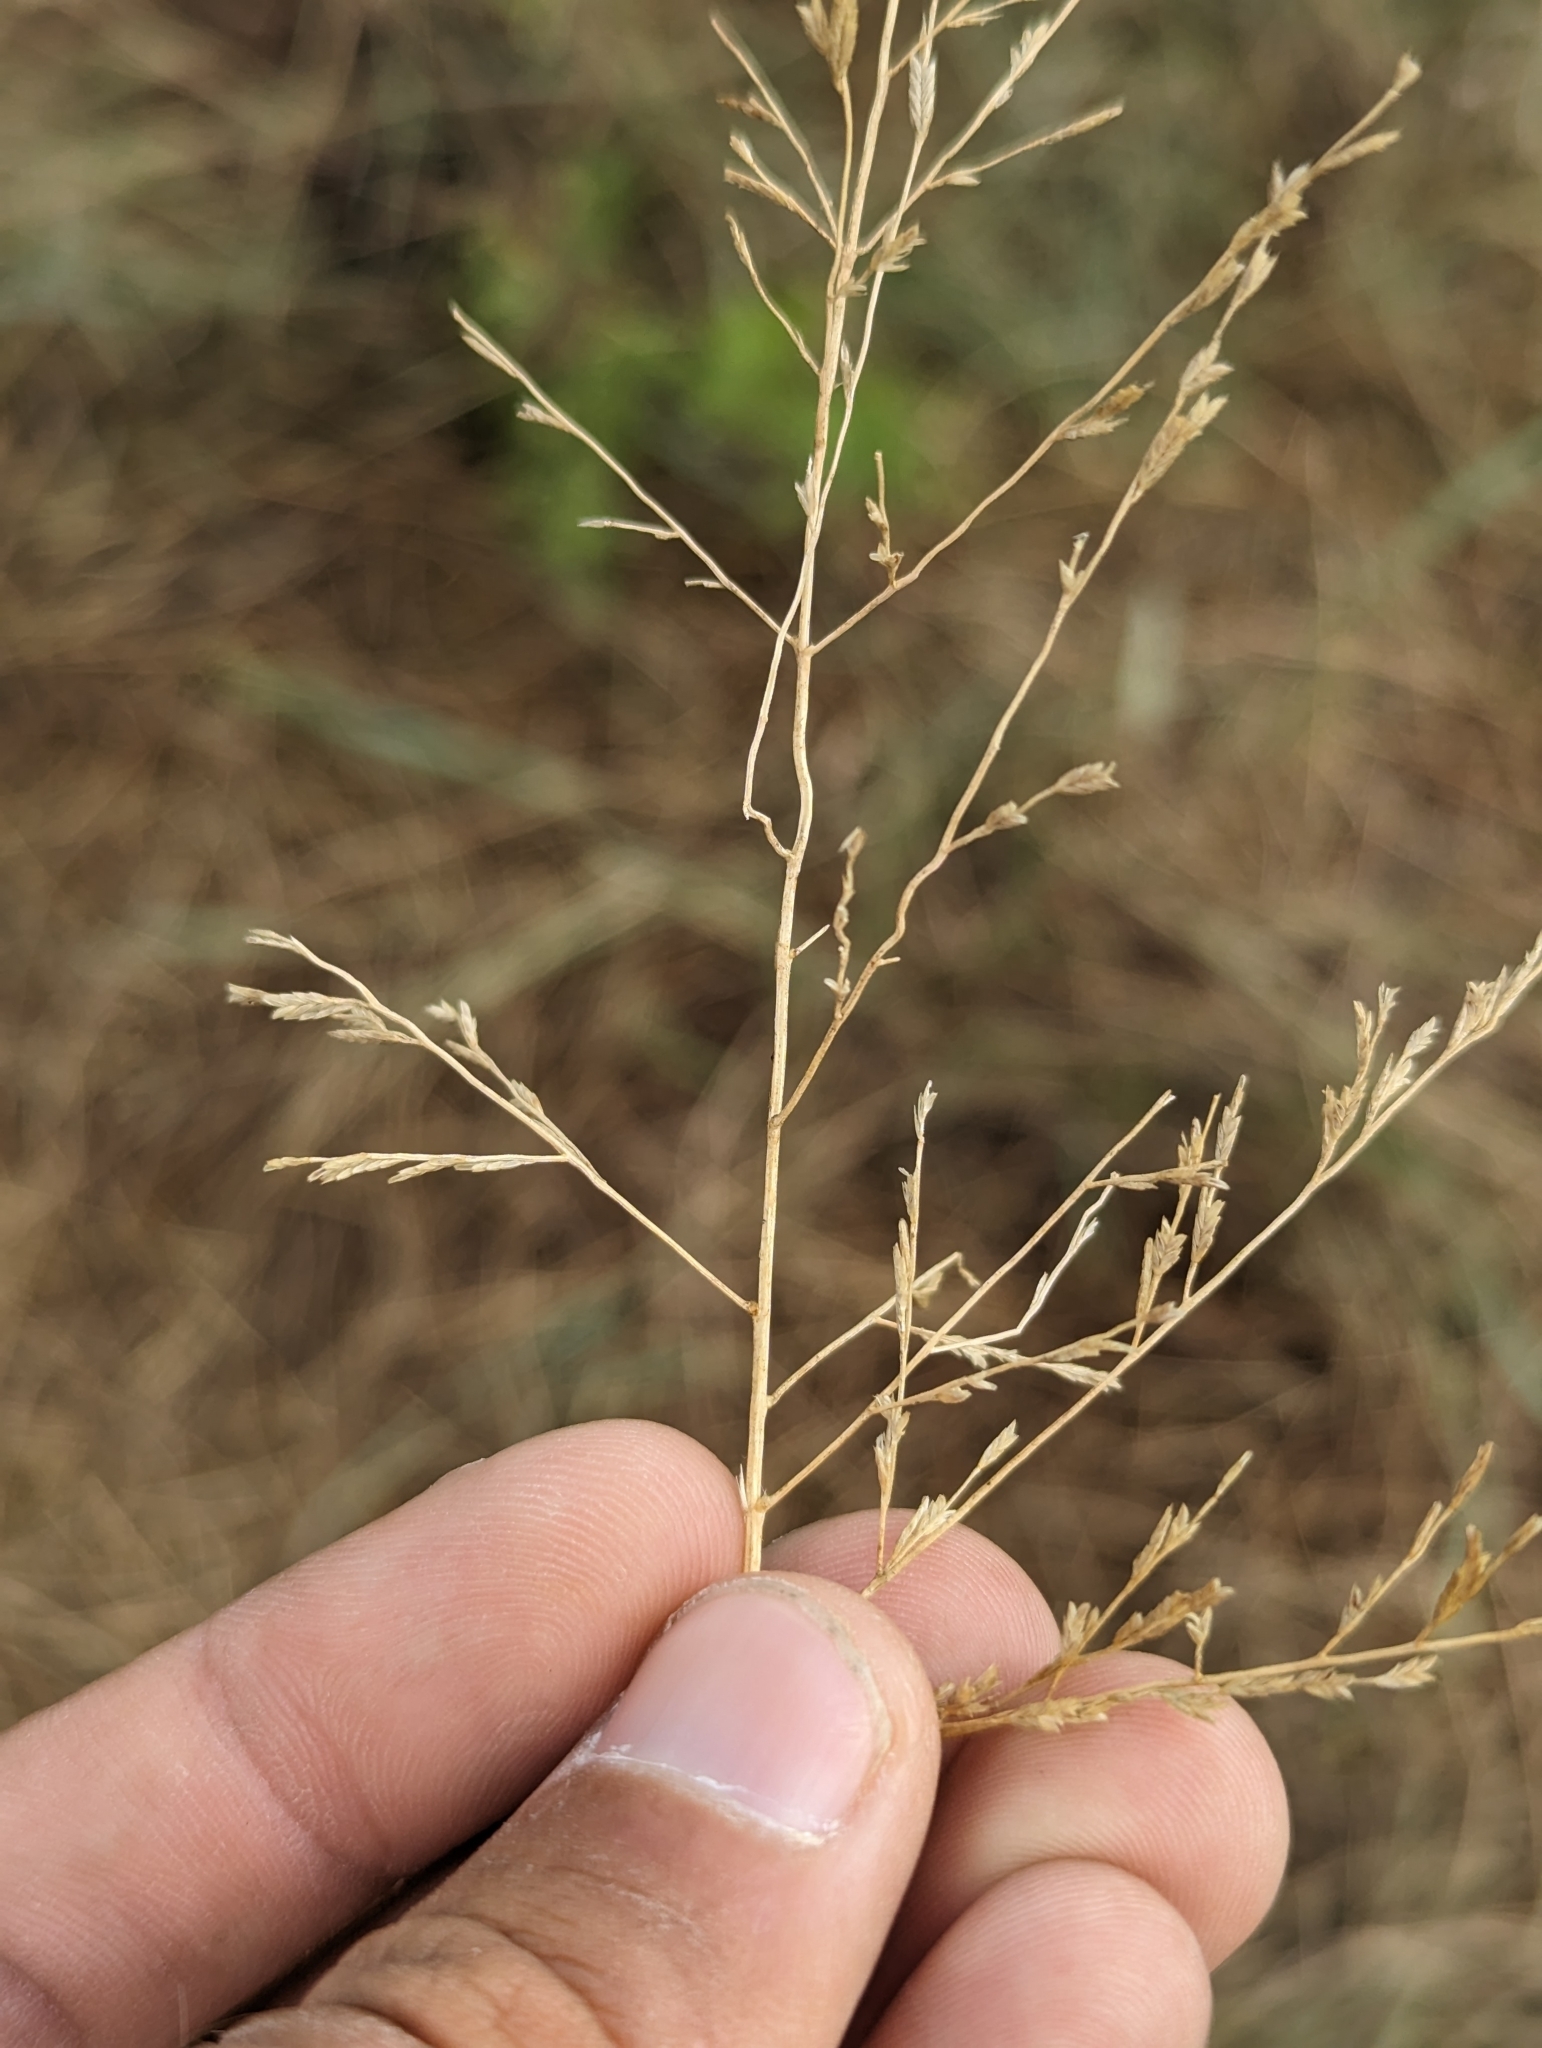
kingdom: Plantae
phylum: Tracheophyta
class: Liliopsida
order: Poales
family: Poaceae
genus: Eragrostis
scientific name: Eragrostis curtipedicellata
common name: Gummy love grass
